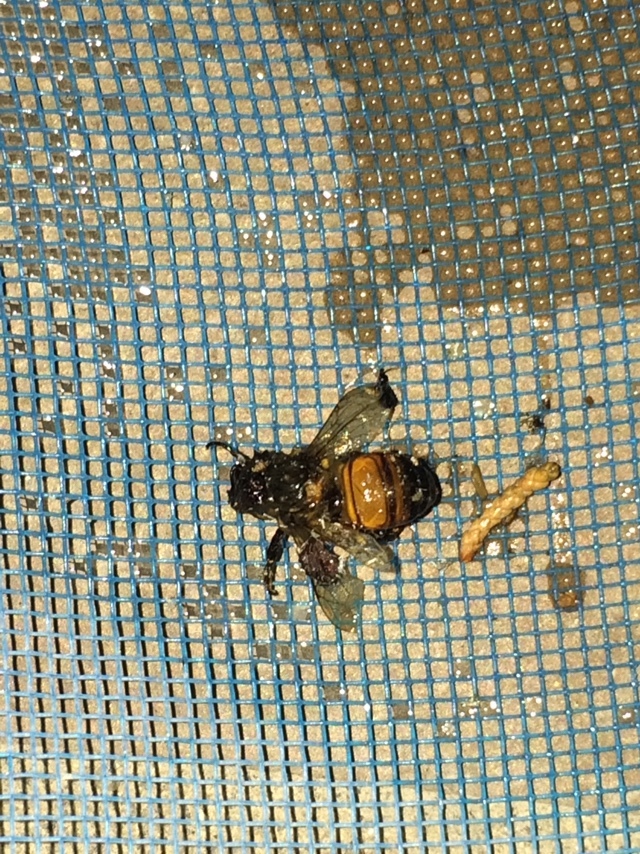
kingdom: Animalia
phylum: Arthropoda
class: Insecta
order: Hymenoptera
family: Apidae
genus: Apis
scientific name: Apis mellifera
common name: Honey bee
